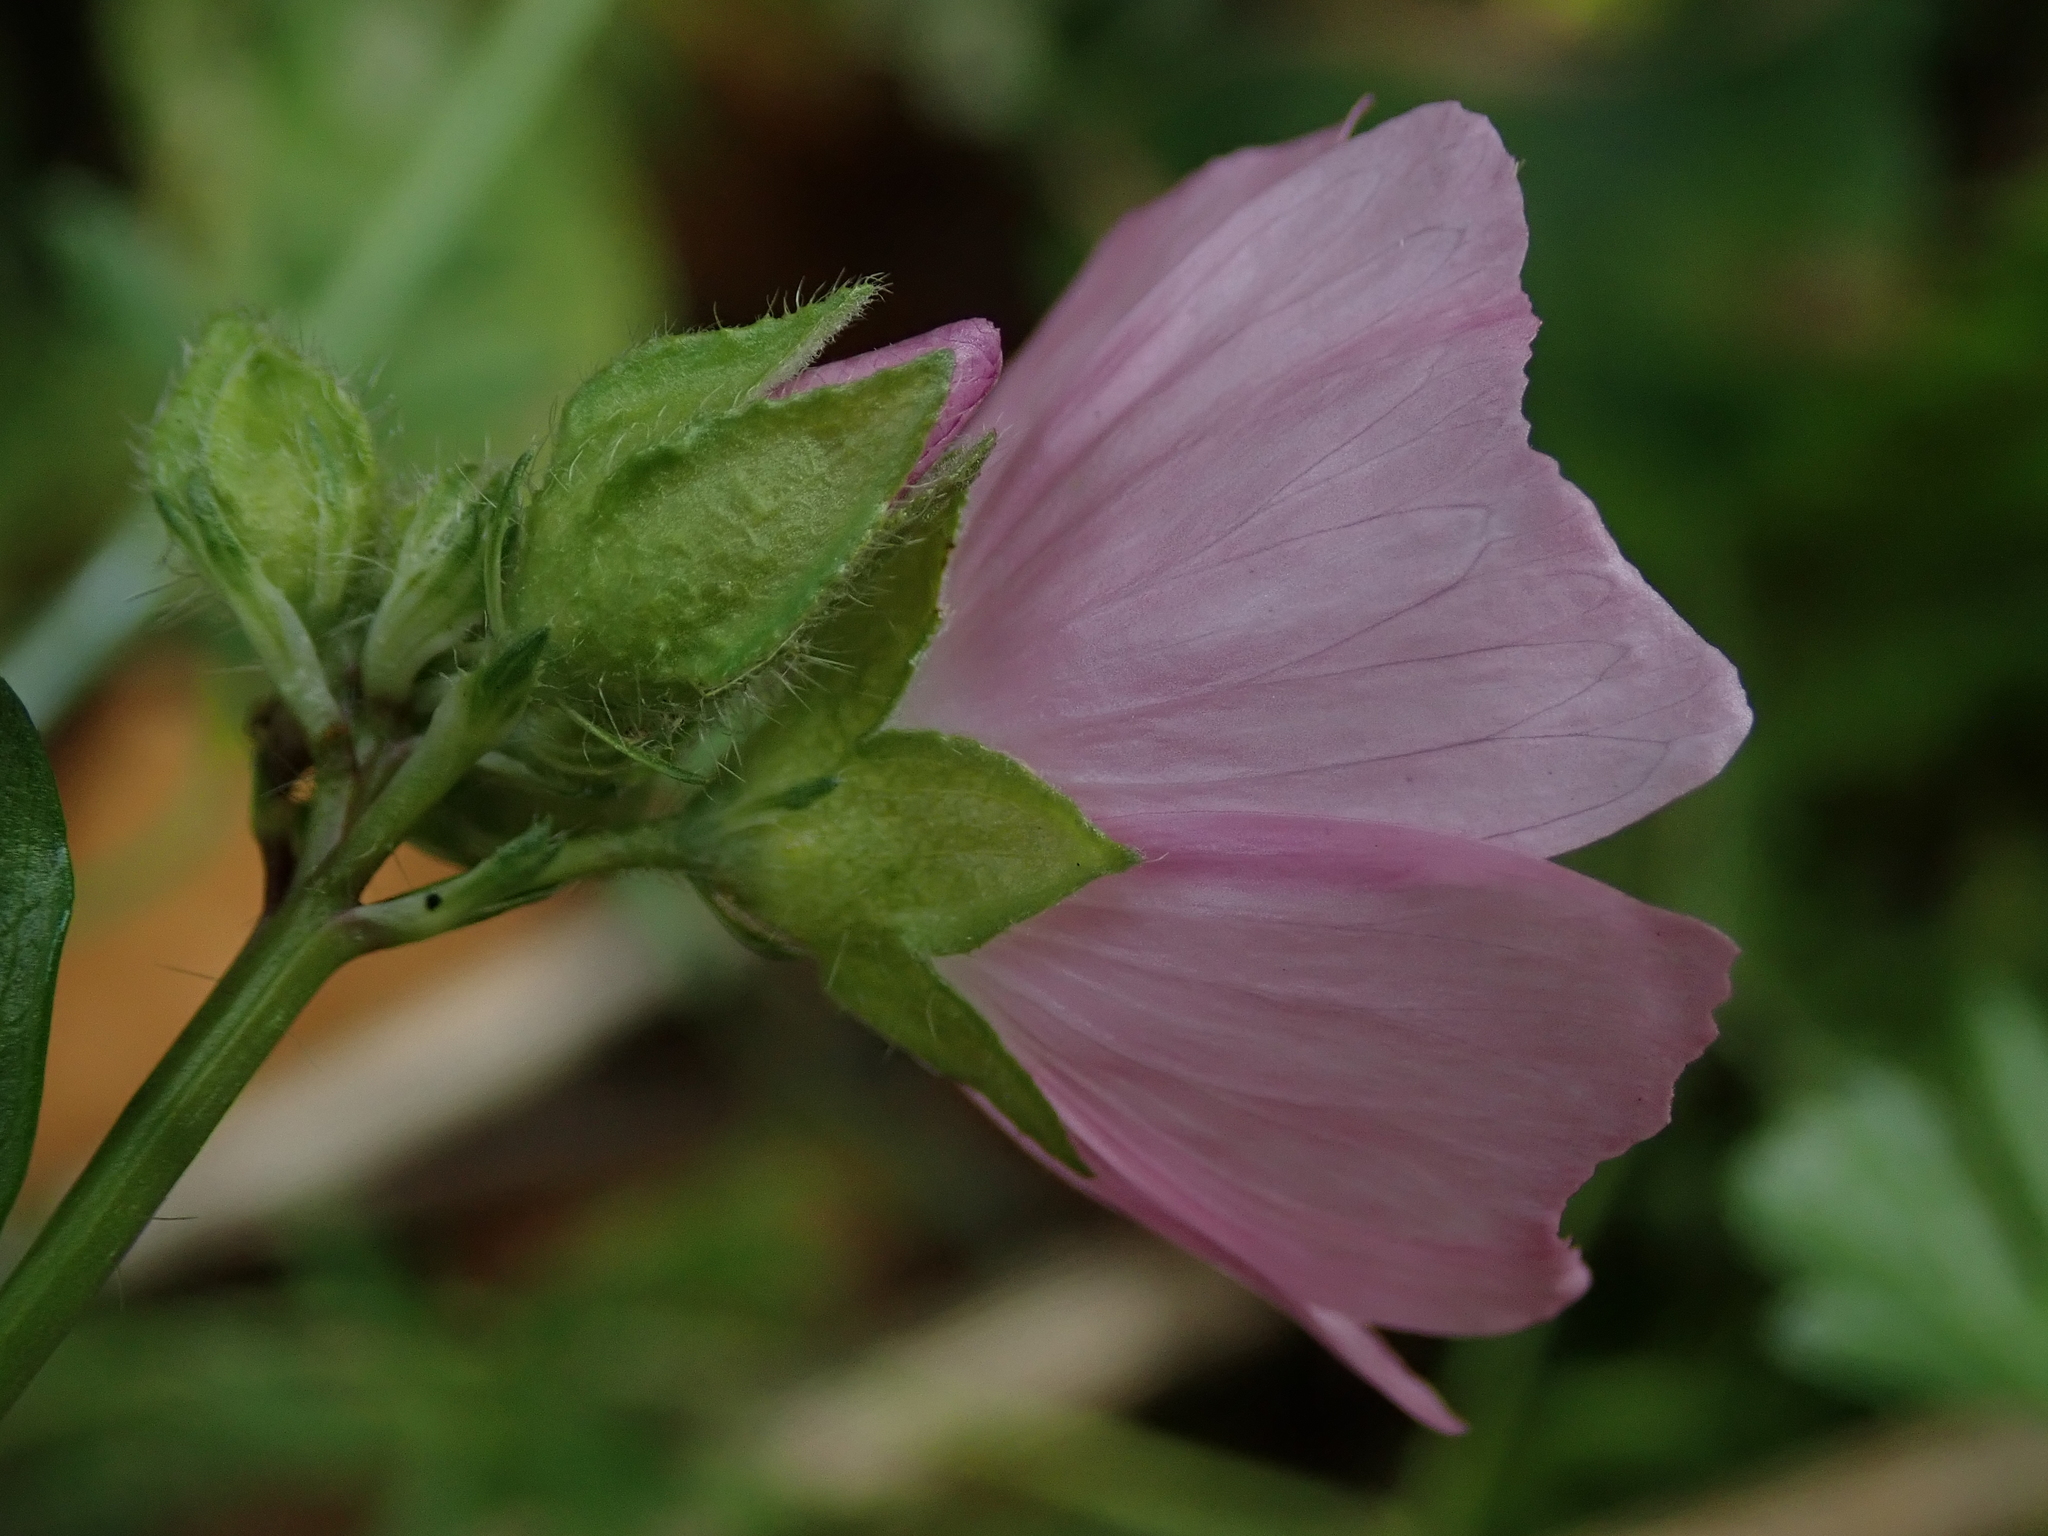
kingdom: Plantae
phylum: Tracheophyta
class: Magnoliopsida
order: Malvales
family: Malvaceae
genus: Malva
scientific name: Malva moschata
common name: Musk mallow
